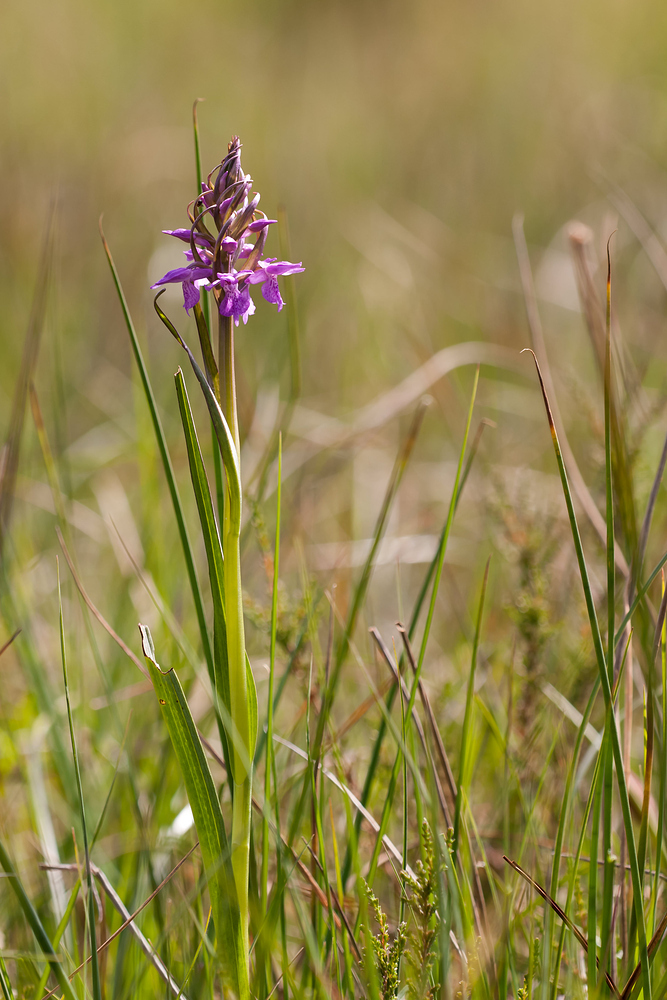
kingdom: Plantae
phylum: Tracheophyta
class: Liliopsida
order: Asparagales
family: Orchidaceae
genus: Dactylorhiza
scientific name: Dactylorhiza majalis
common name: Marsh orchid
